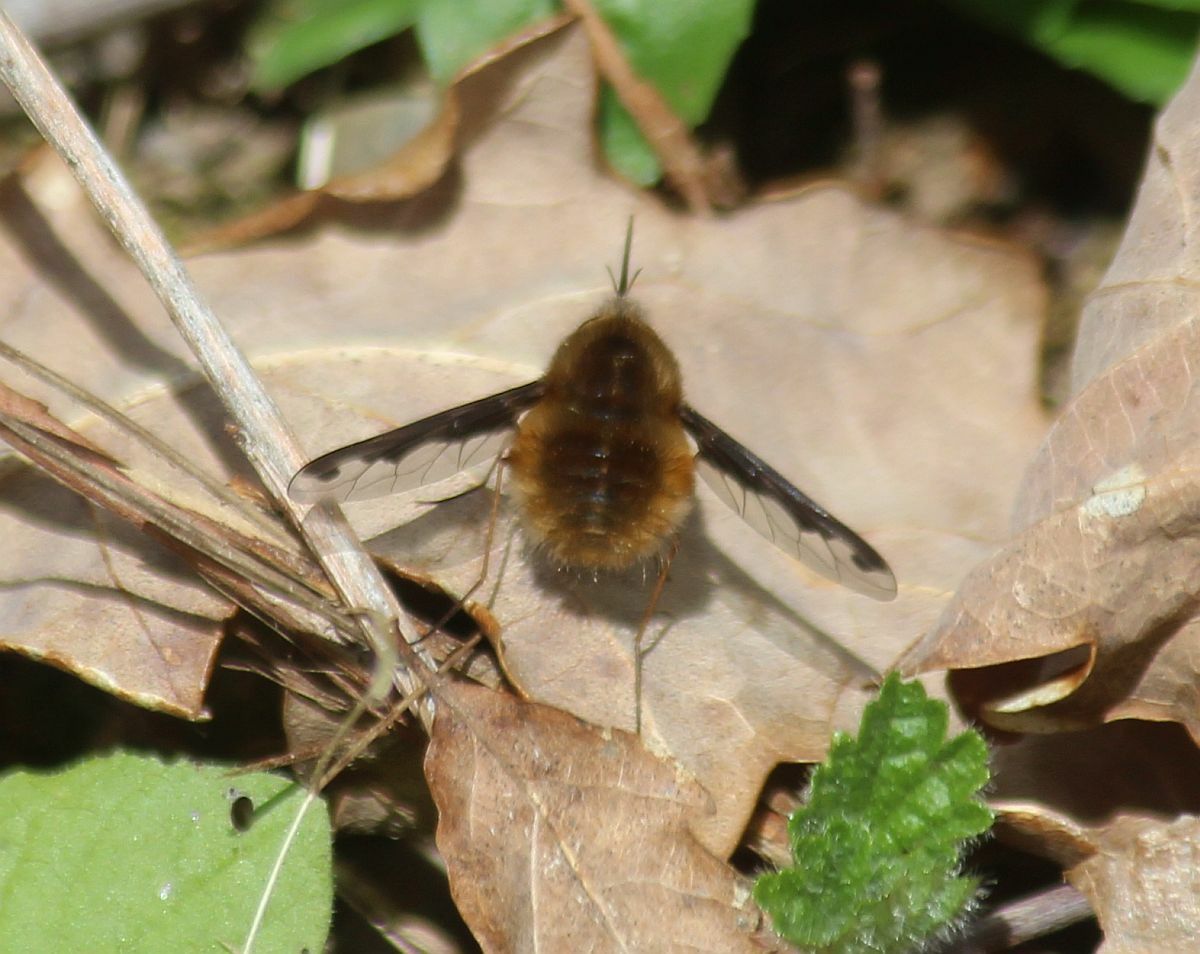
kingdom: Animalia
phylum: Arthropoda
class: Insecta
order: Diptera
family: Bombyliidae
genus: Bombylius
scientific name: Bombylius major
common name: Bee fly
